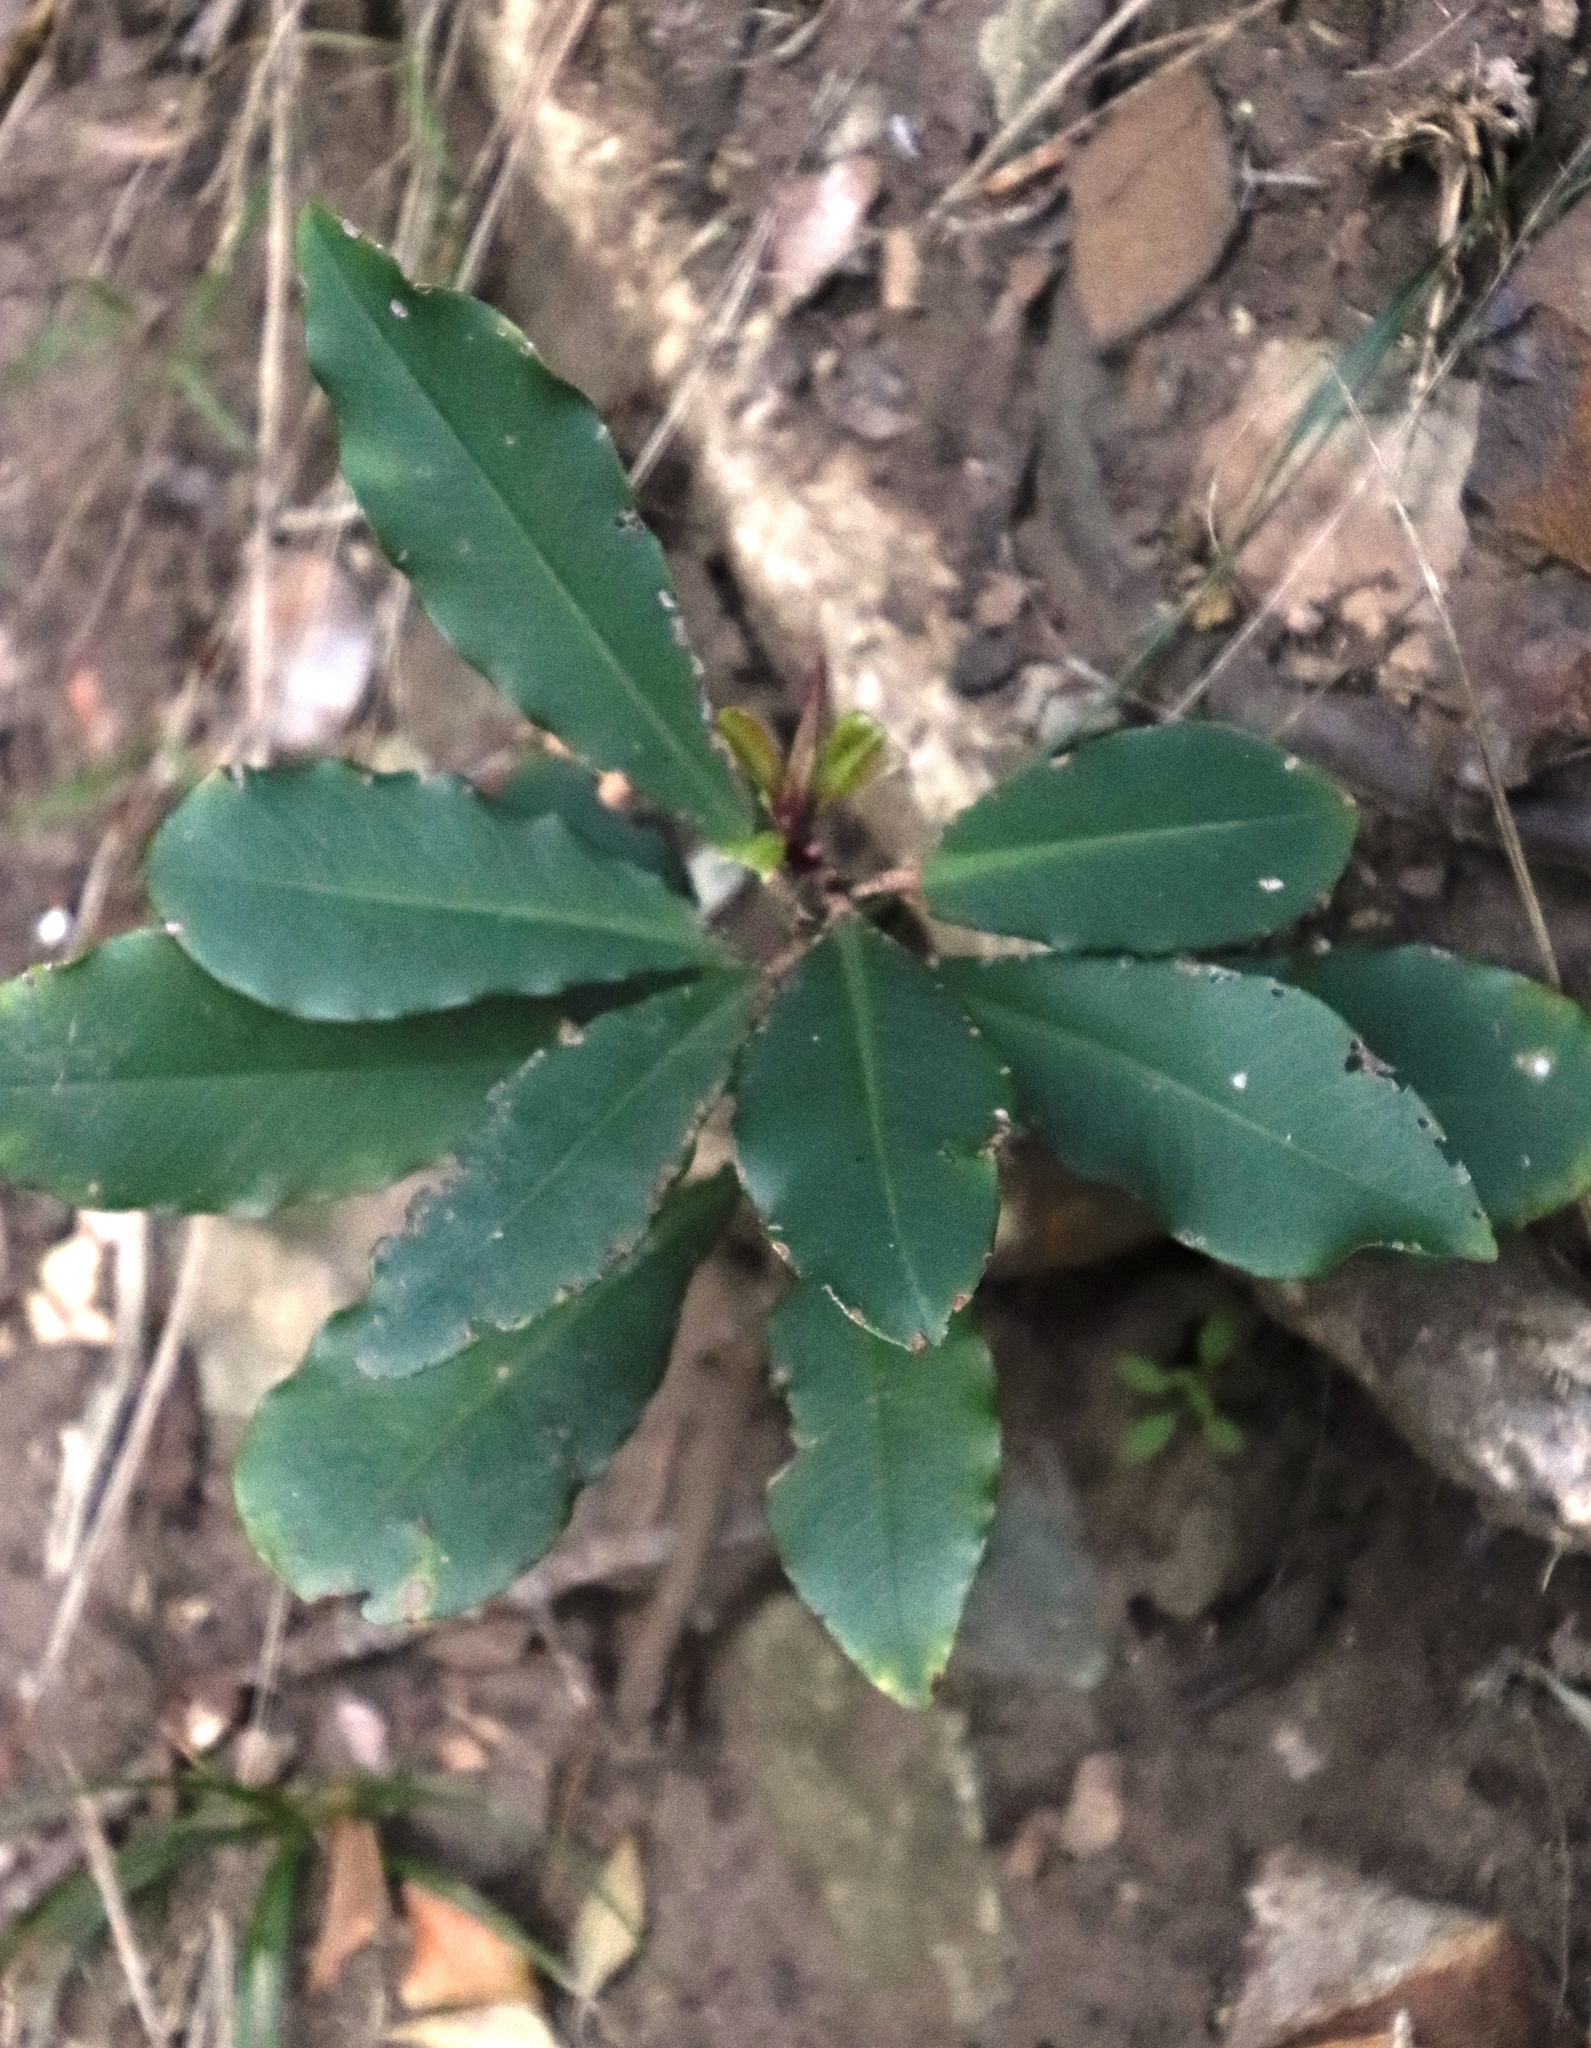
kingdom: Plantae
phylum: Tracheophyta
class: Magnoliopsida
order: Ericales
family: Primulaceae
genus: Myrsine
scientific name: Myrsine melanophloeos
